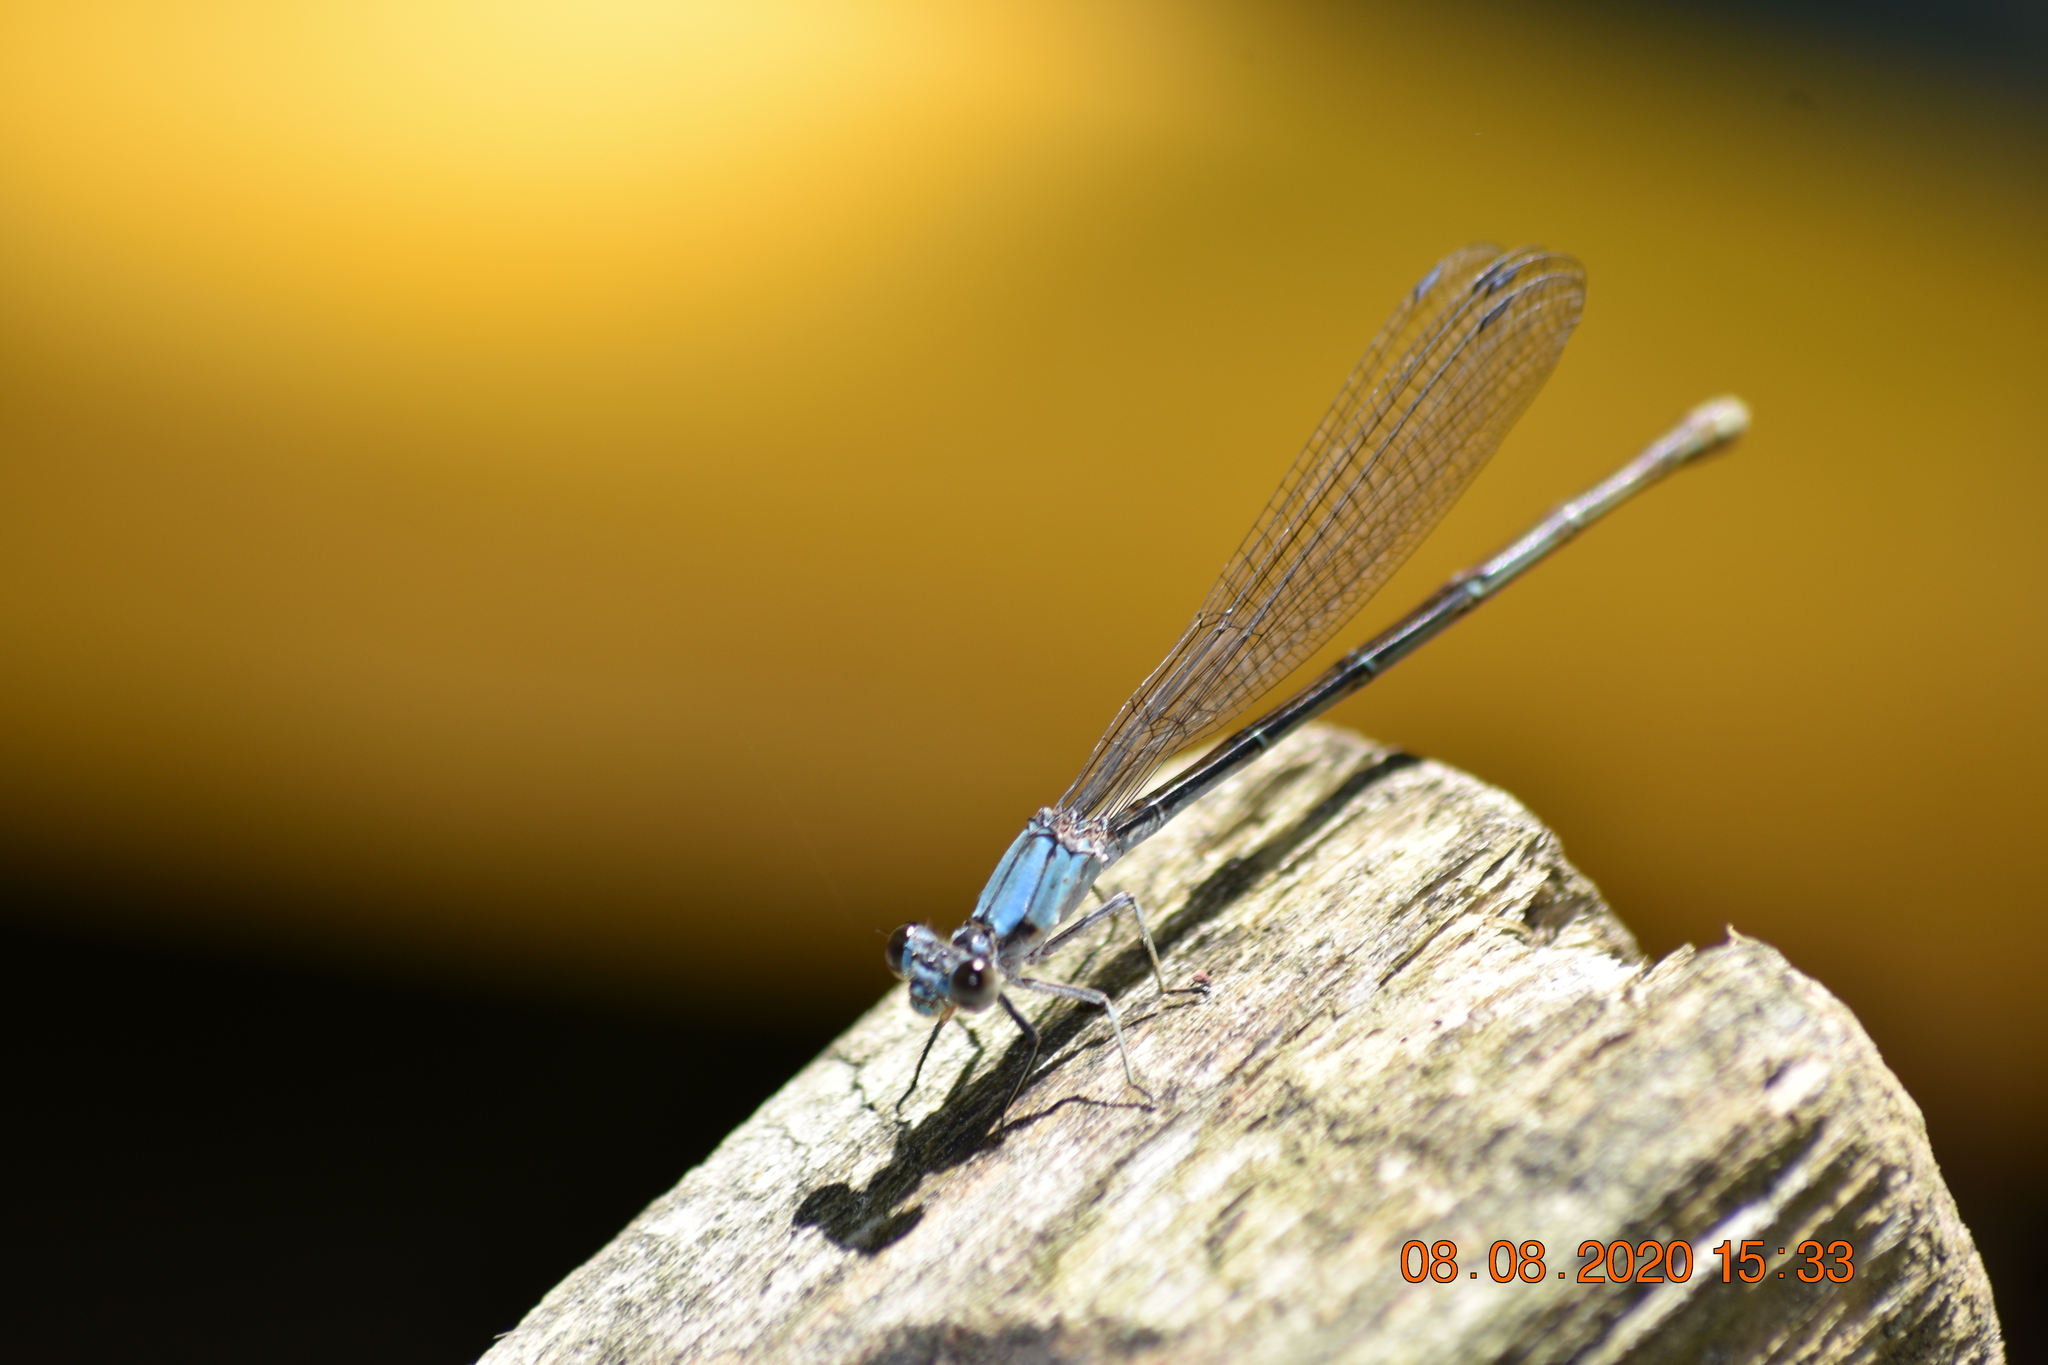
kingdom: Animalia
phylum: Arthropoda
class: Insecta
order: Odonata
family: Coenagrionidae
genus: Argia
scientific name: Argia moesta
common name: Powdered dancer
